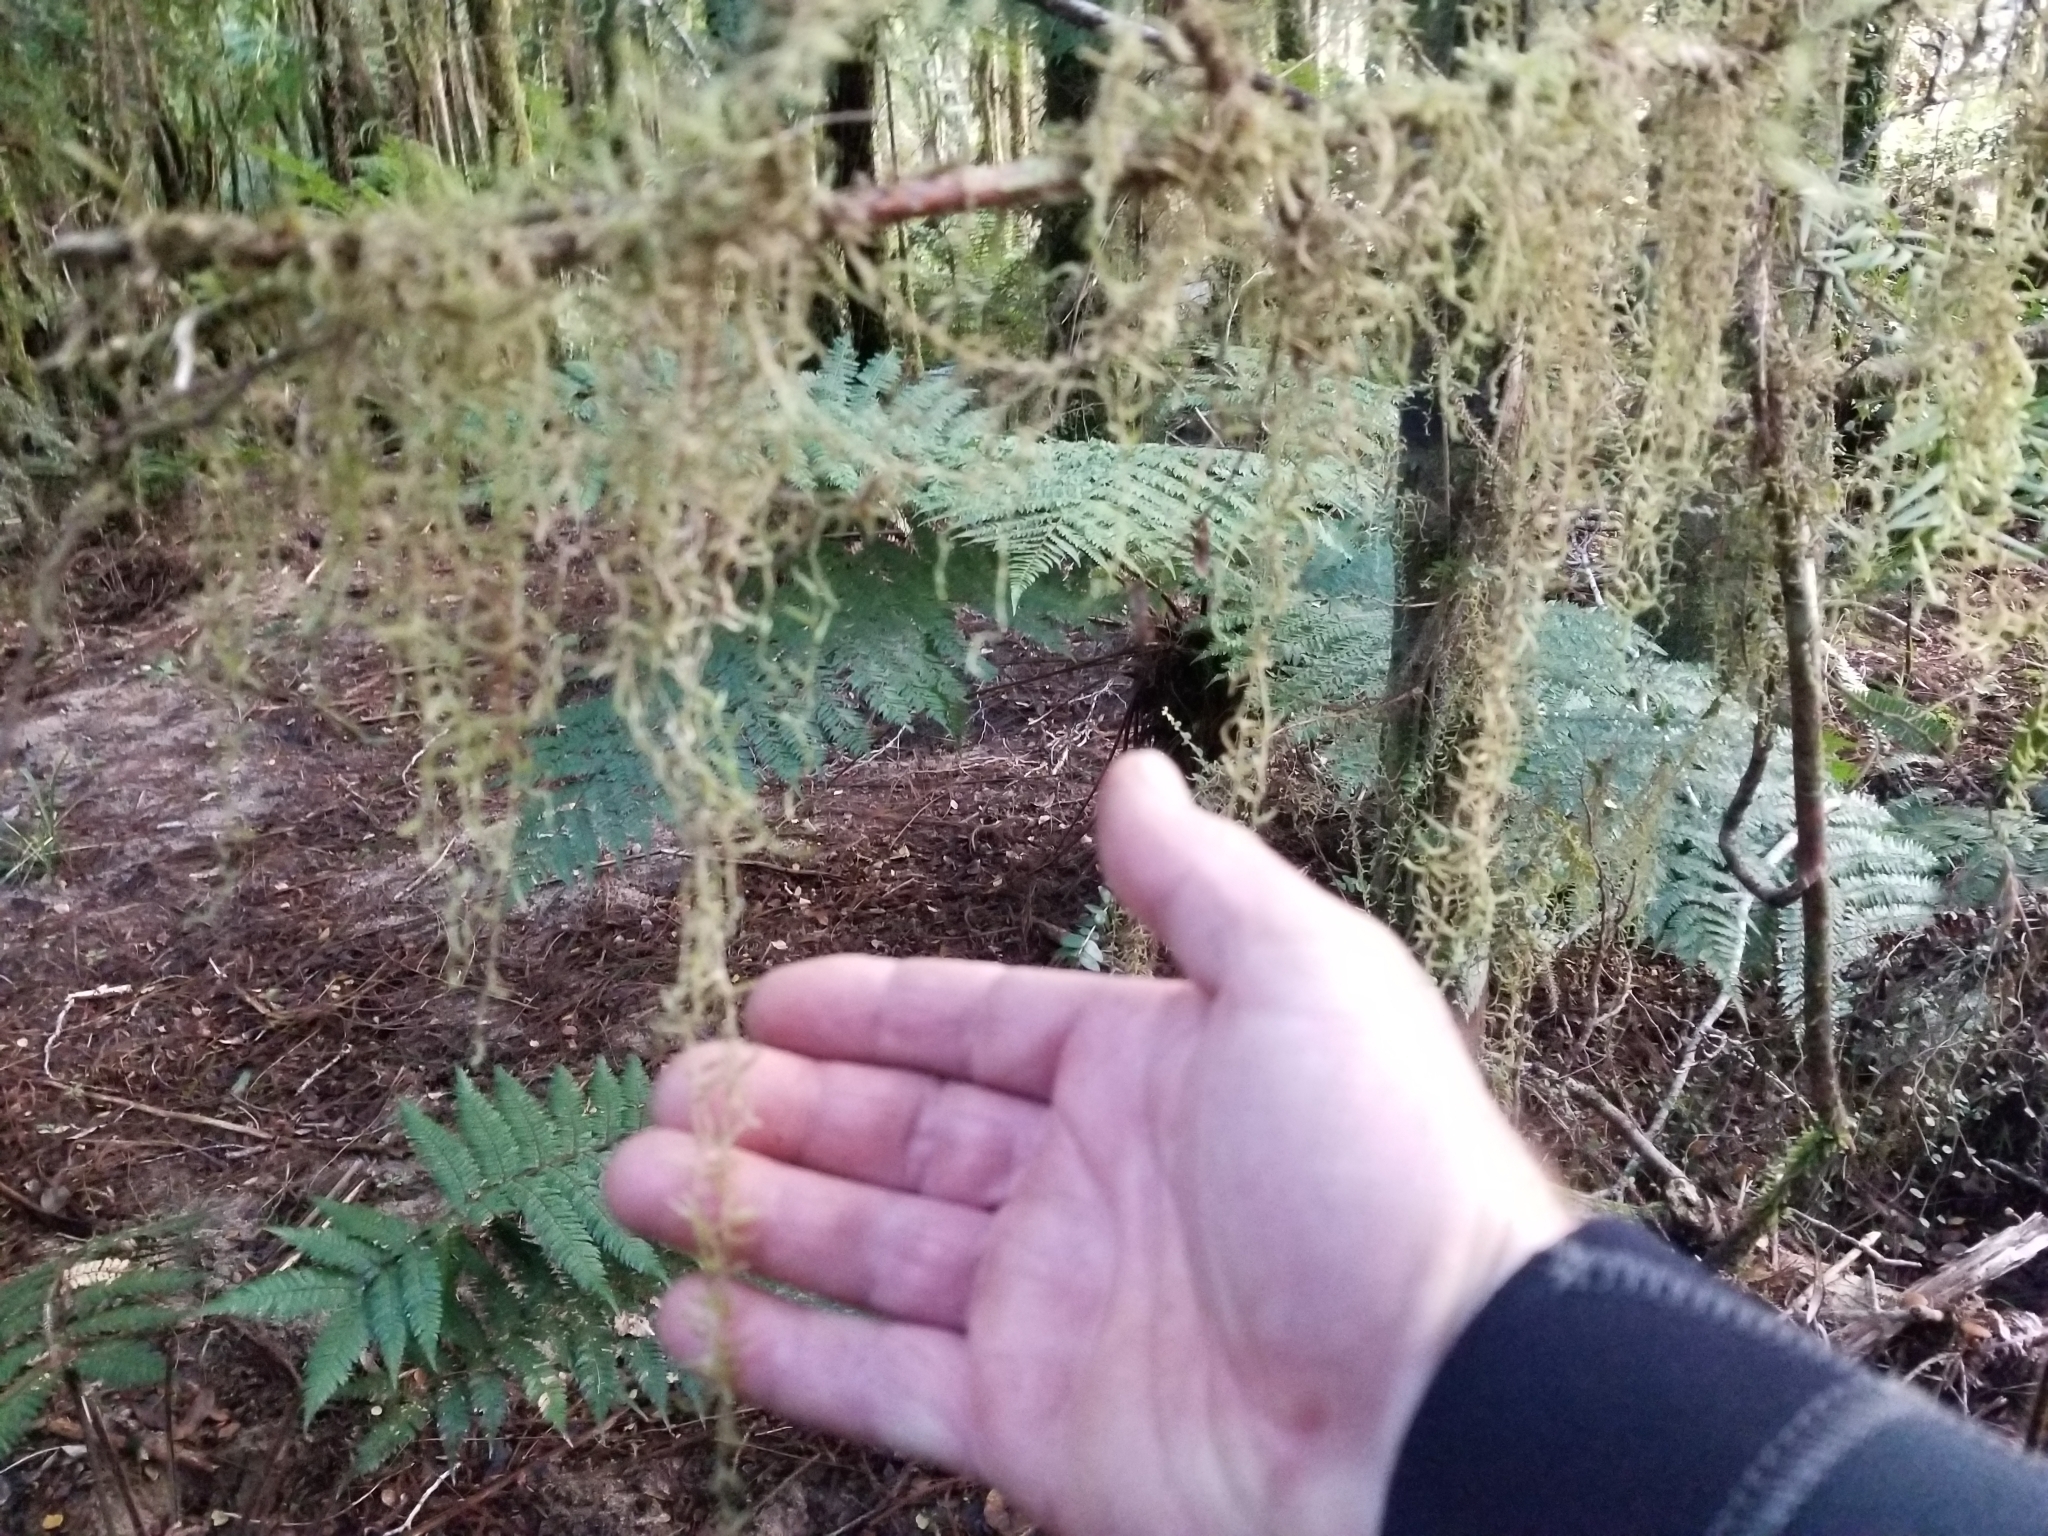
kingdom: Plantae
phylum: Bryophyta
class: Bryopsida
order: Hypnales
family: Lembophyllaceae
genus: Weymouthia
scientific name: Weymouthia mollis
